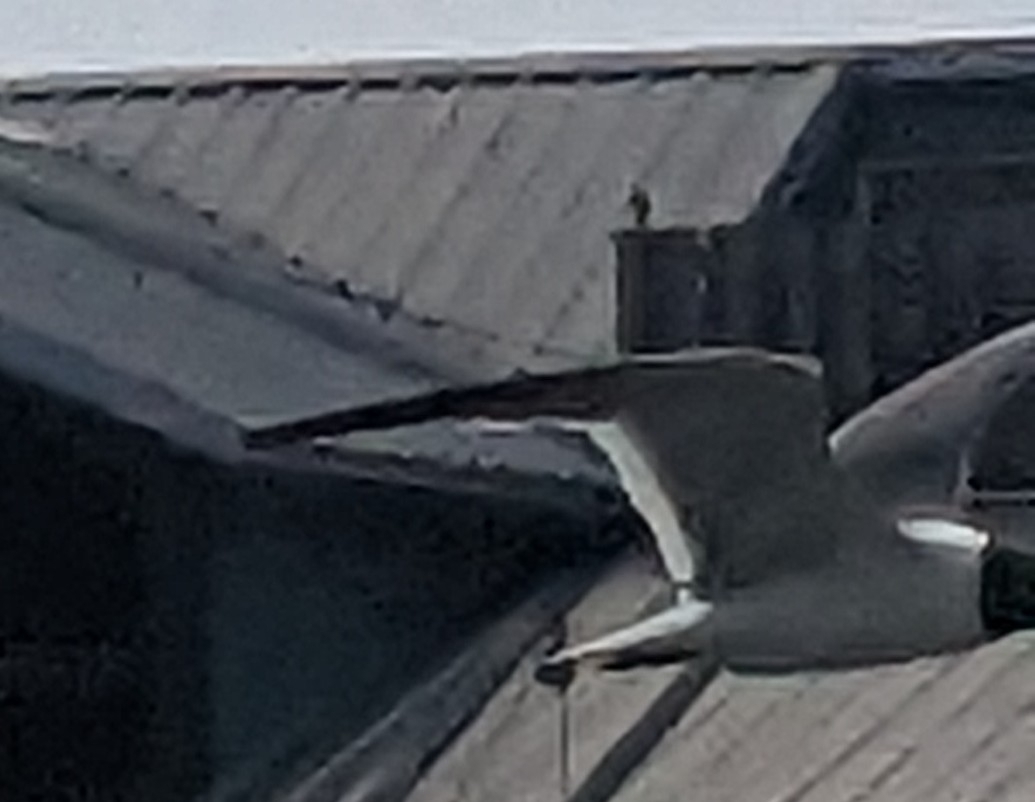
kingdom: Animalia
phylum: Chordata
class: Aves
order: Charadriiformes
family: Laridae
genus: Leucophaeus
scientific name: Leucophaeus atricilla
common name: Laughing gull
